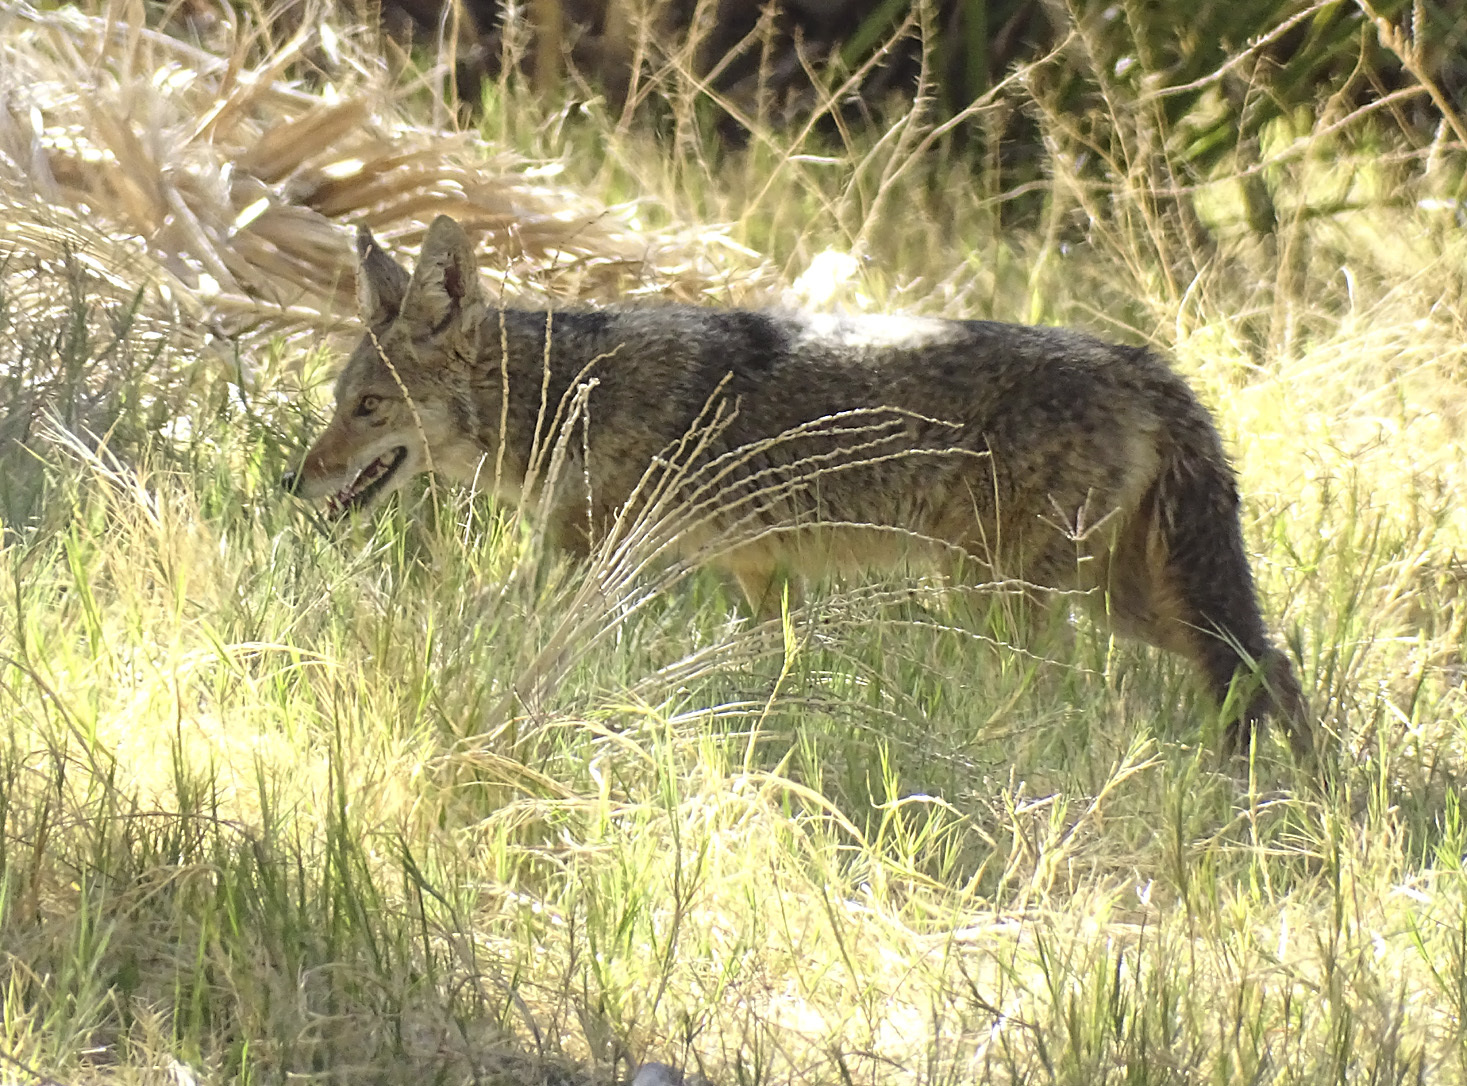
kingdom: Animalia
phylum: Chordata
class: Mammalia
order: Carnivora
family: Canidae
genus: Canis
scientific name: Canis latrans
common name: Coyote
